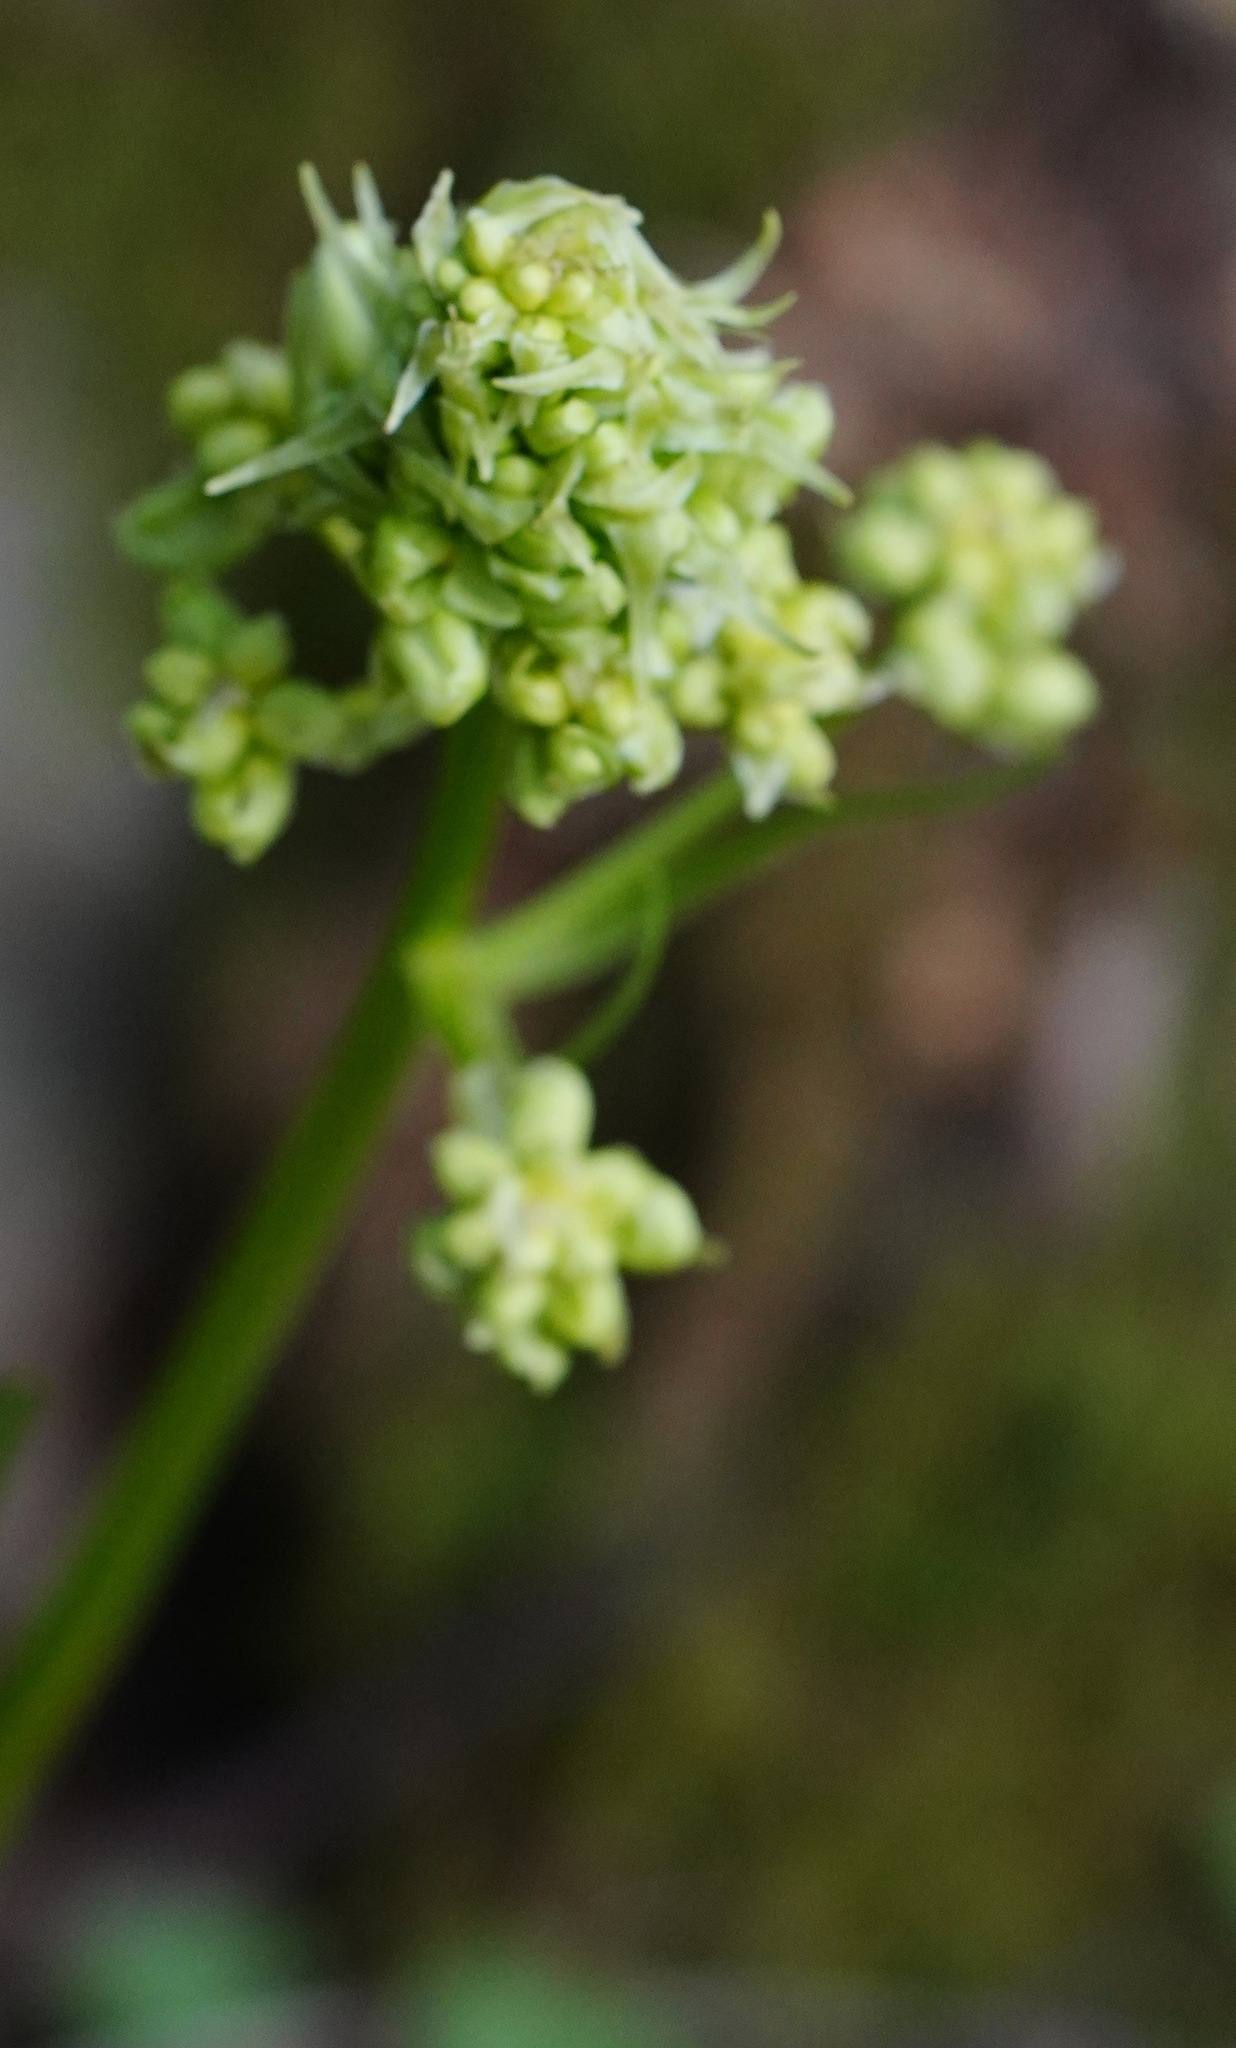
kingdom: Plantae
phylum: Tracheophyta
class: Liliopsida
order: Liliales
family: Melanthiaceae
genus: Toxicoscordion
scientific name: Toxicoscordion fremontii
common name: Fremont's death camas
